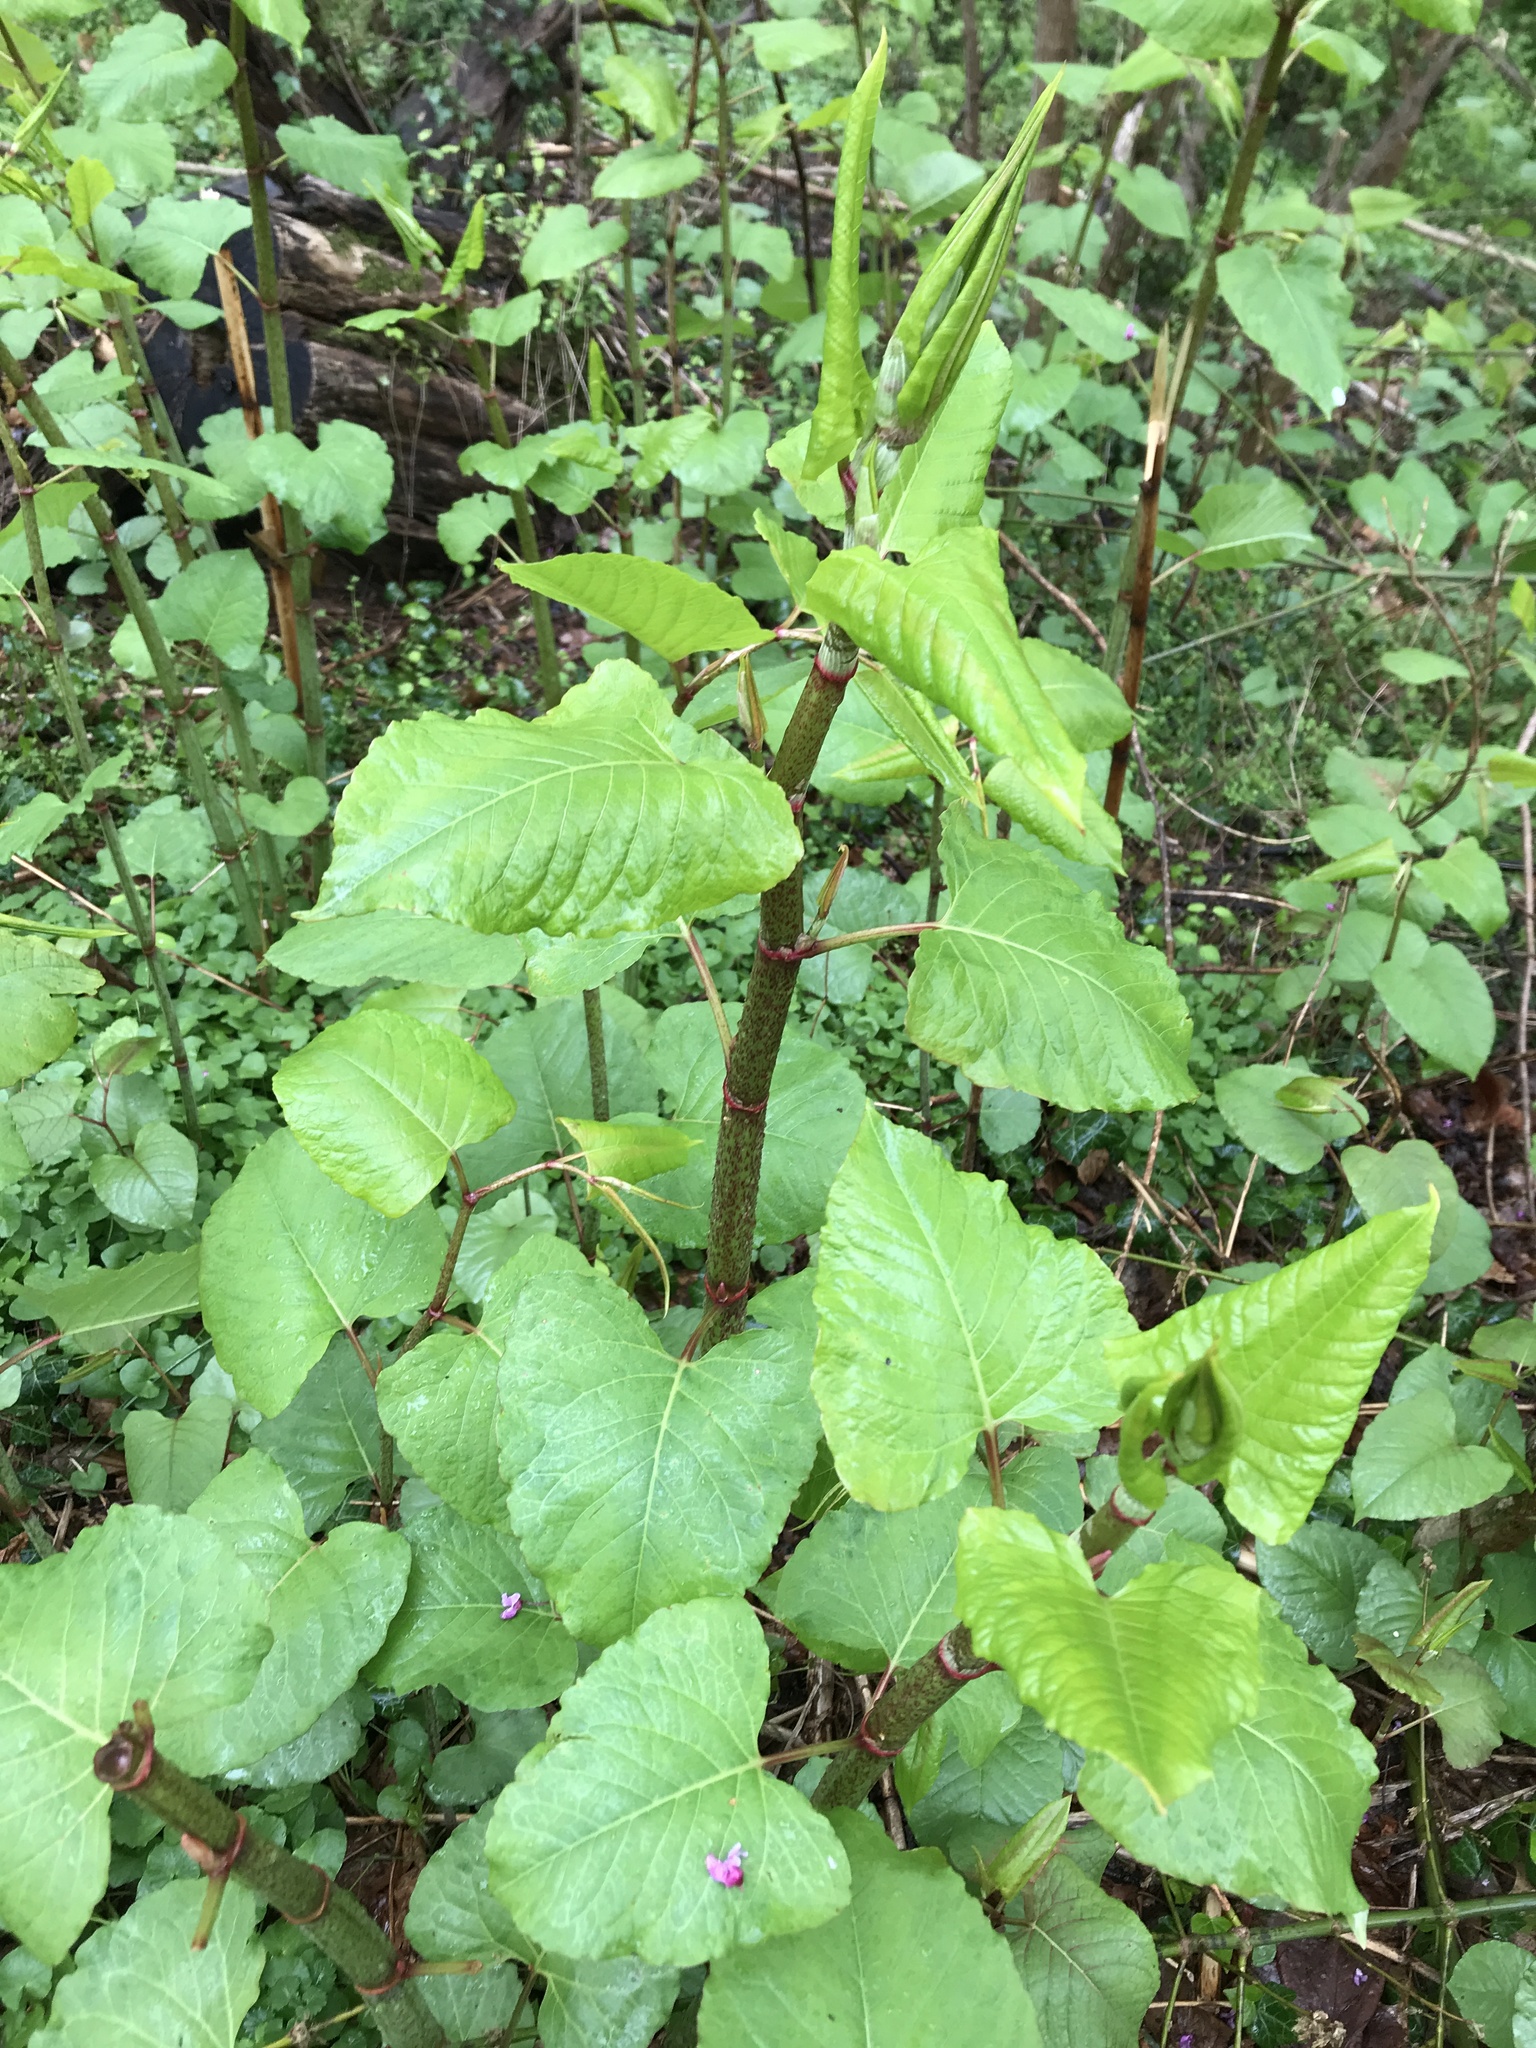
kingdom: Plantae
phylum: Tracheophyta
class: Magnoliopsida
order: Caryophyllales
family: Polygonaceae
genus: Reynoutria
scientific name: Reynoutria japonica
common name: Japanese knotweed
